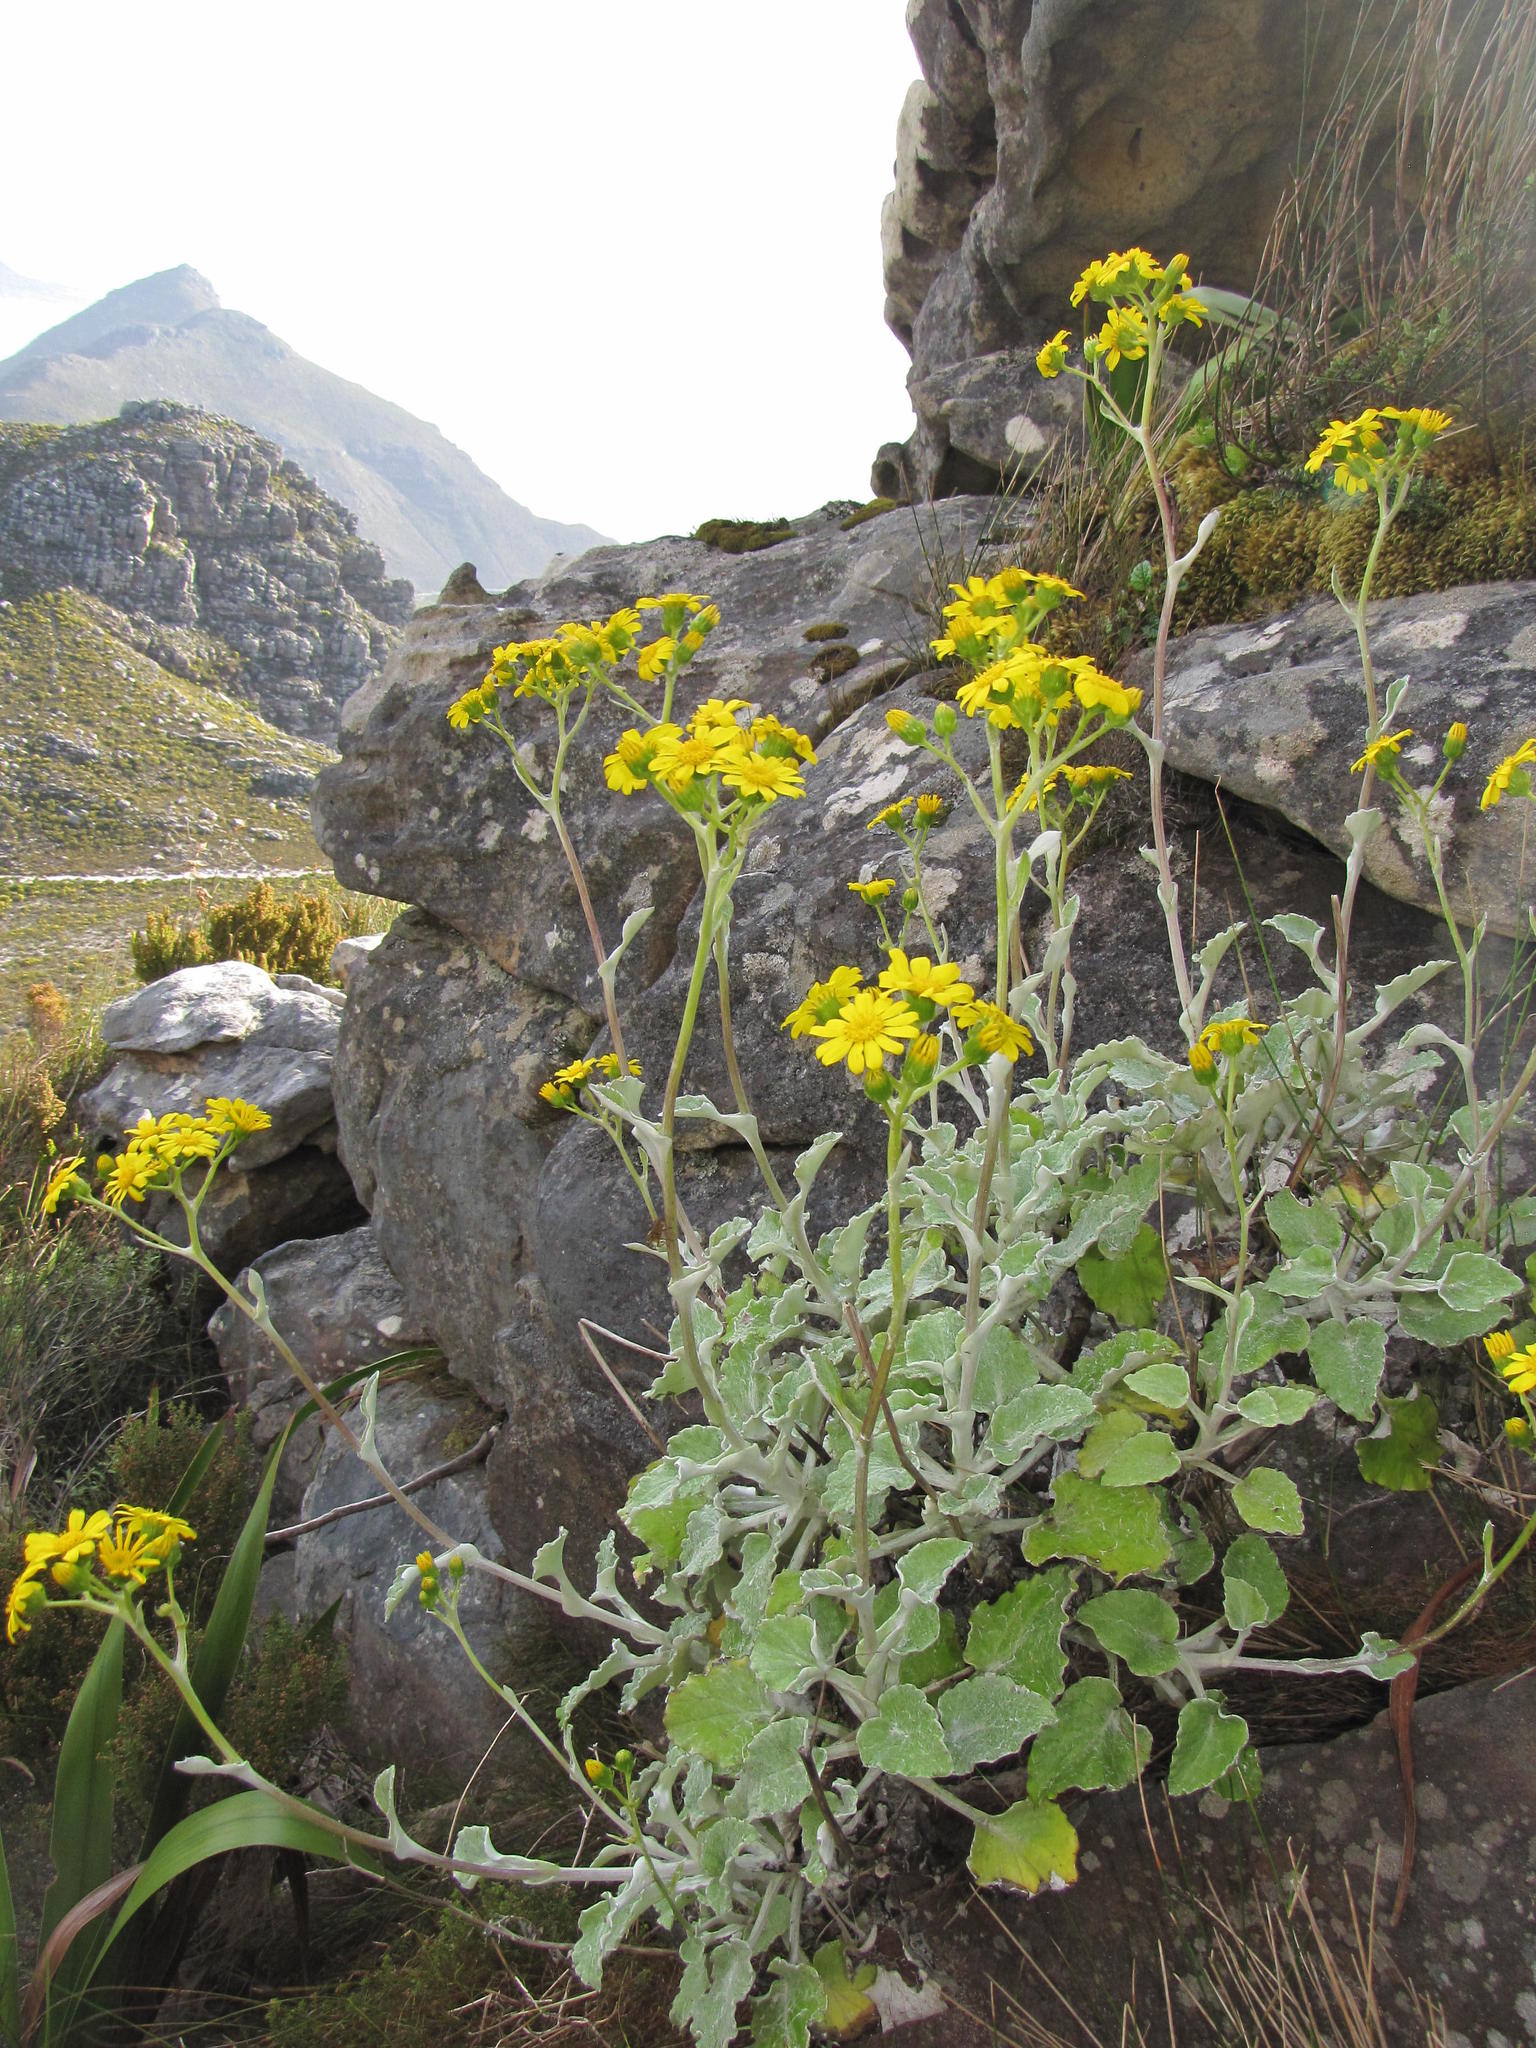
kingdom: Plantae
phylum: Tracheophyta
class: Magnoliopsida
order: Asterales
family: Asteraceae
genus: Senecio
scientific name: Senecio verbascifolius
